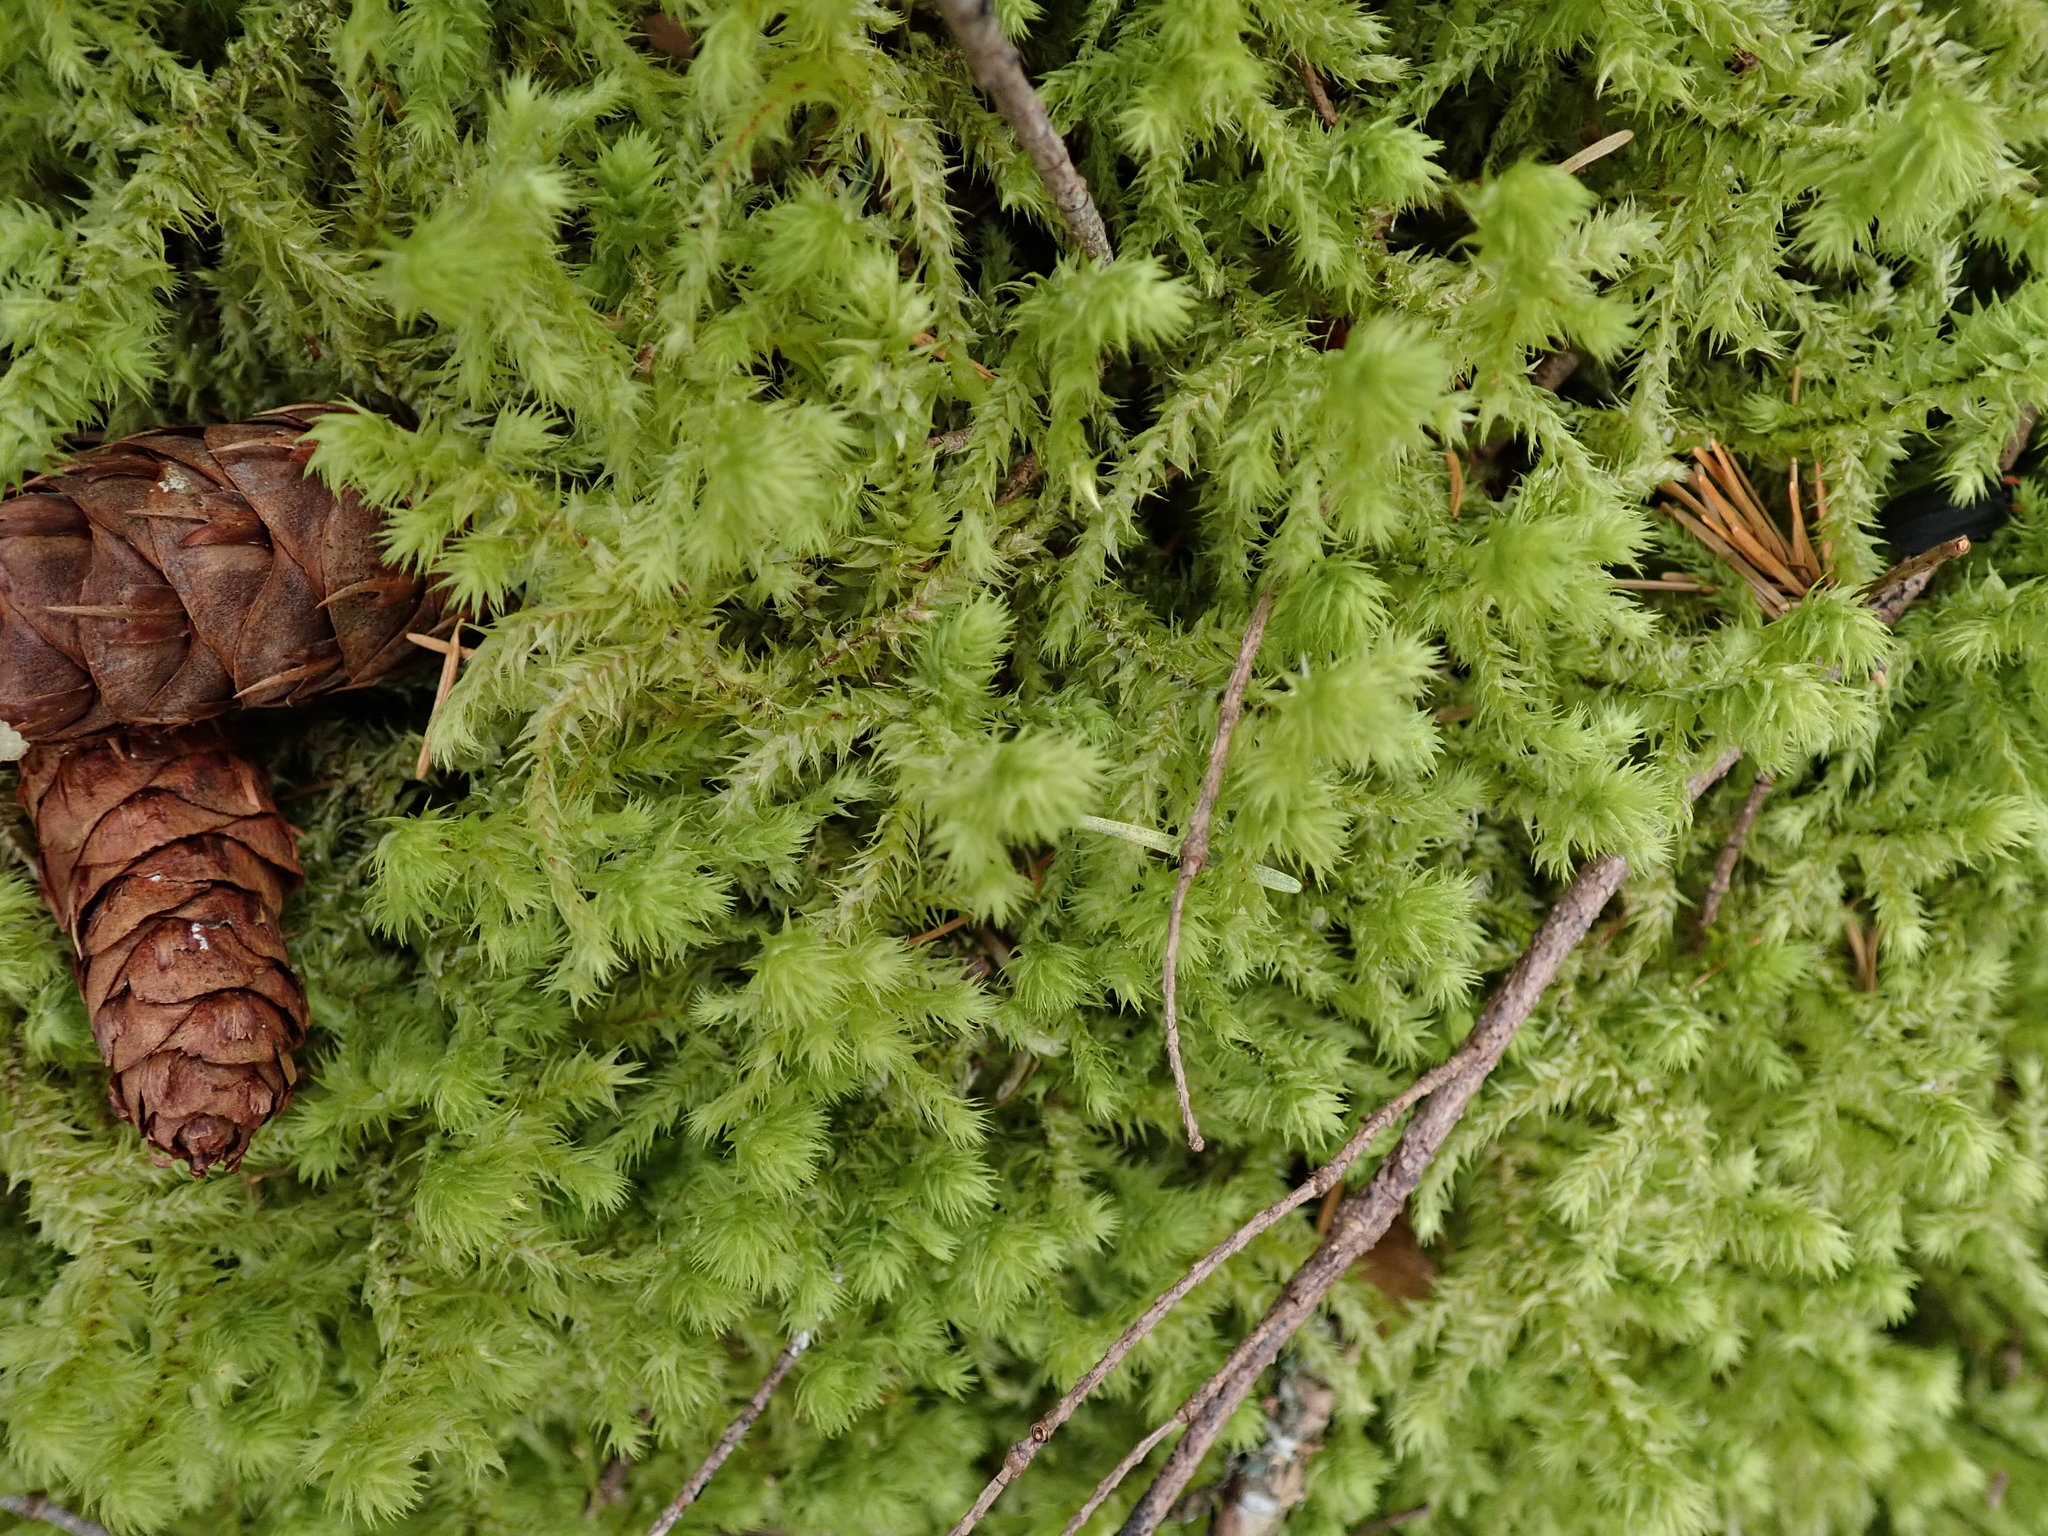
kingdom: Plantae
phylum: Bryophyta
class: Bryopsida
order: Hypnales
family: Hylocomiaceae
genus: Hylocomiadelphus
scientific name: Hylocomiadelphus triquetrus
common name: Rough goose neck moss
